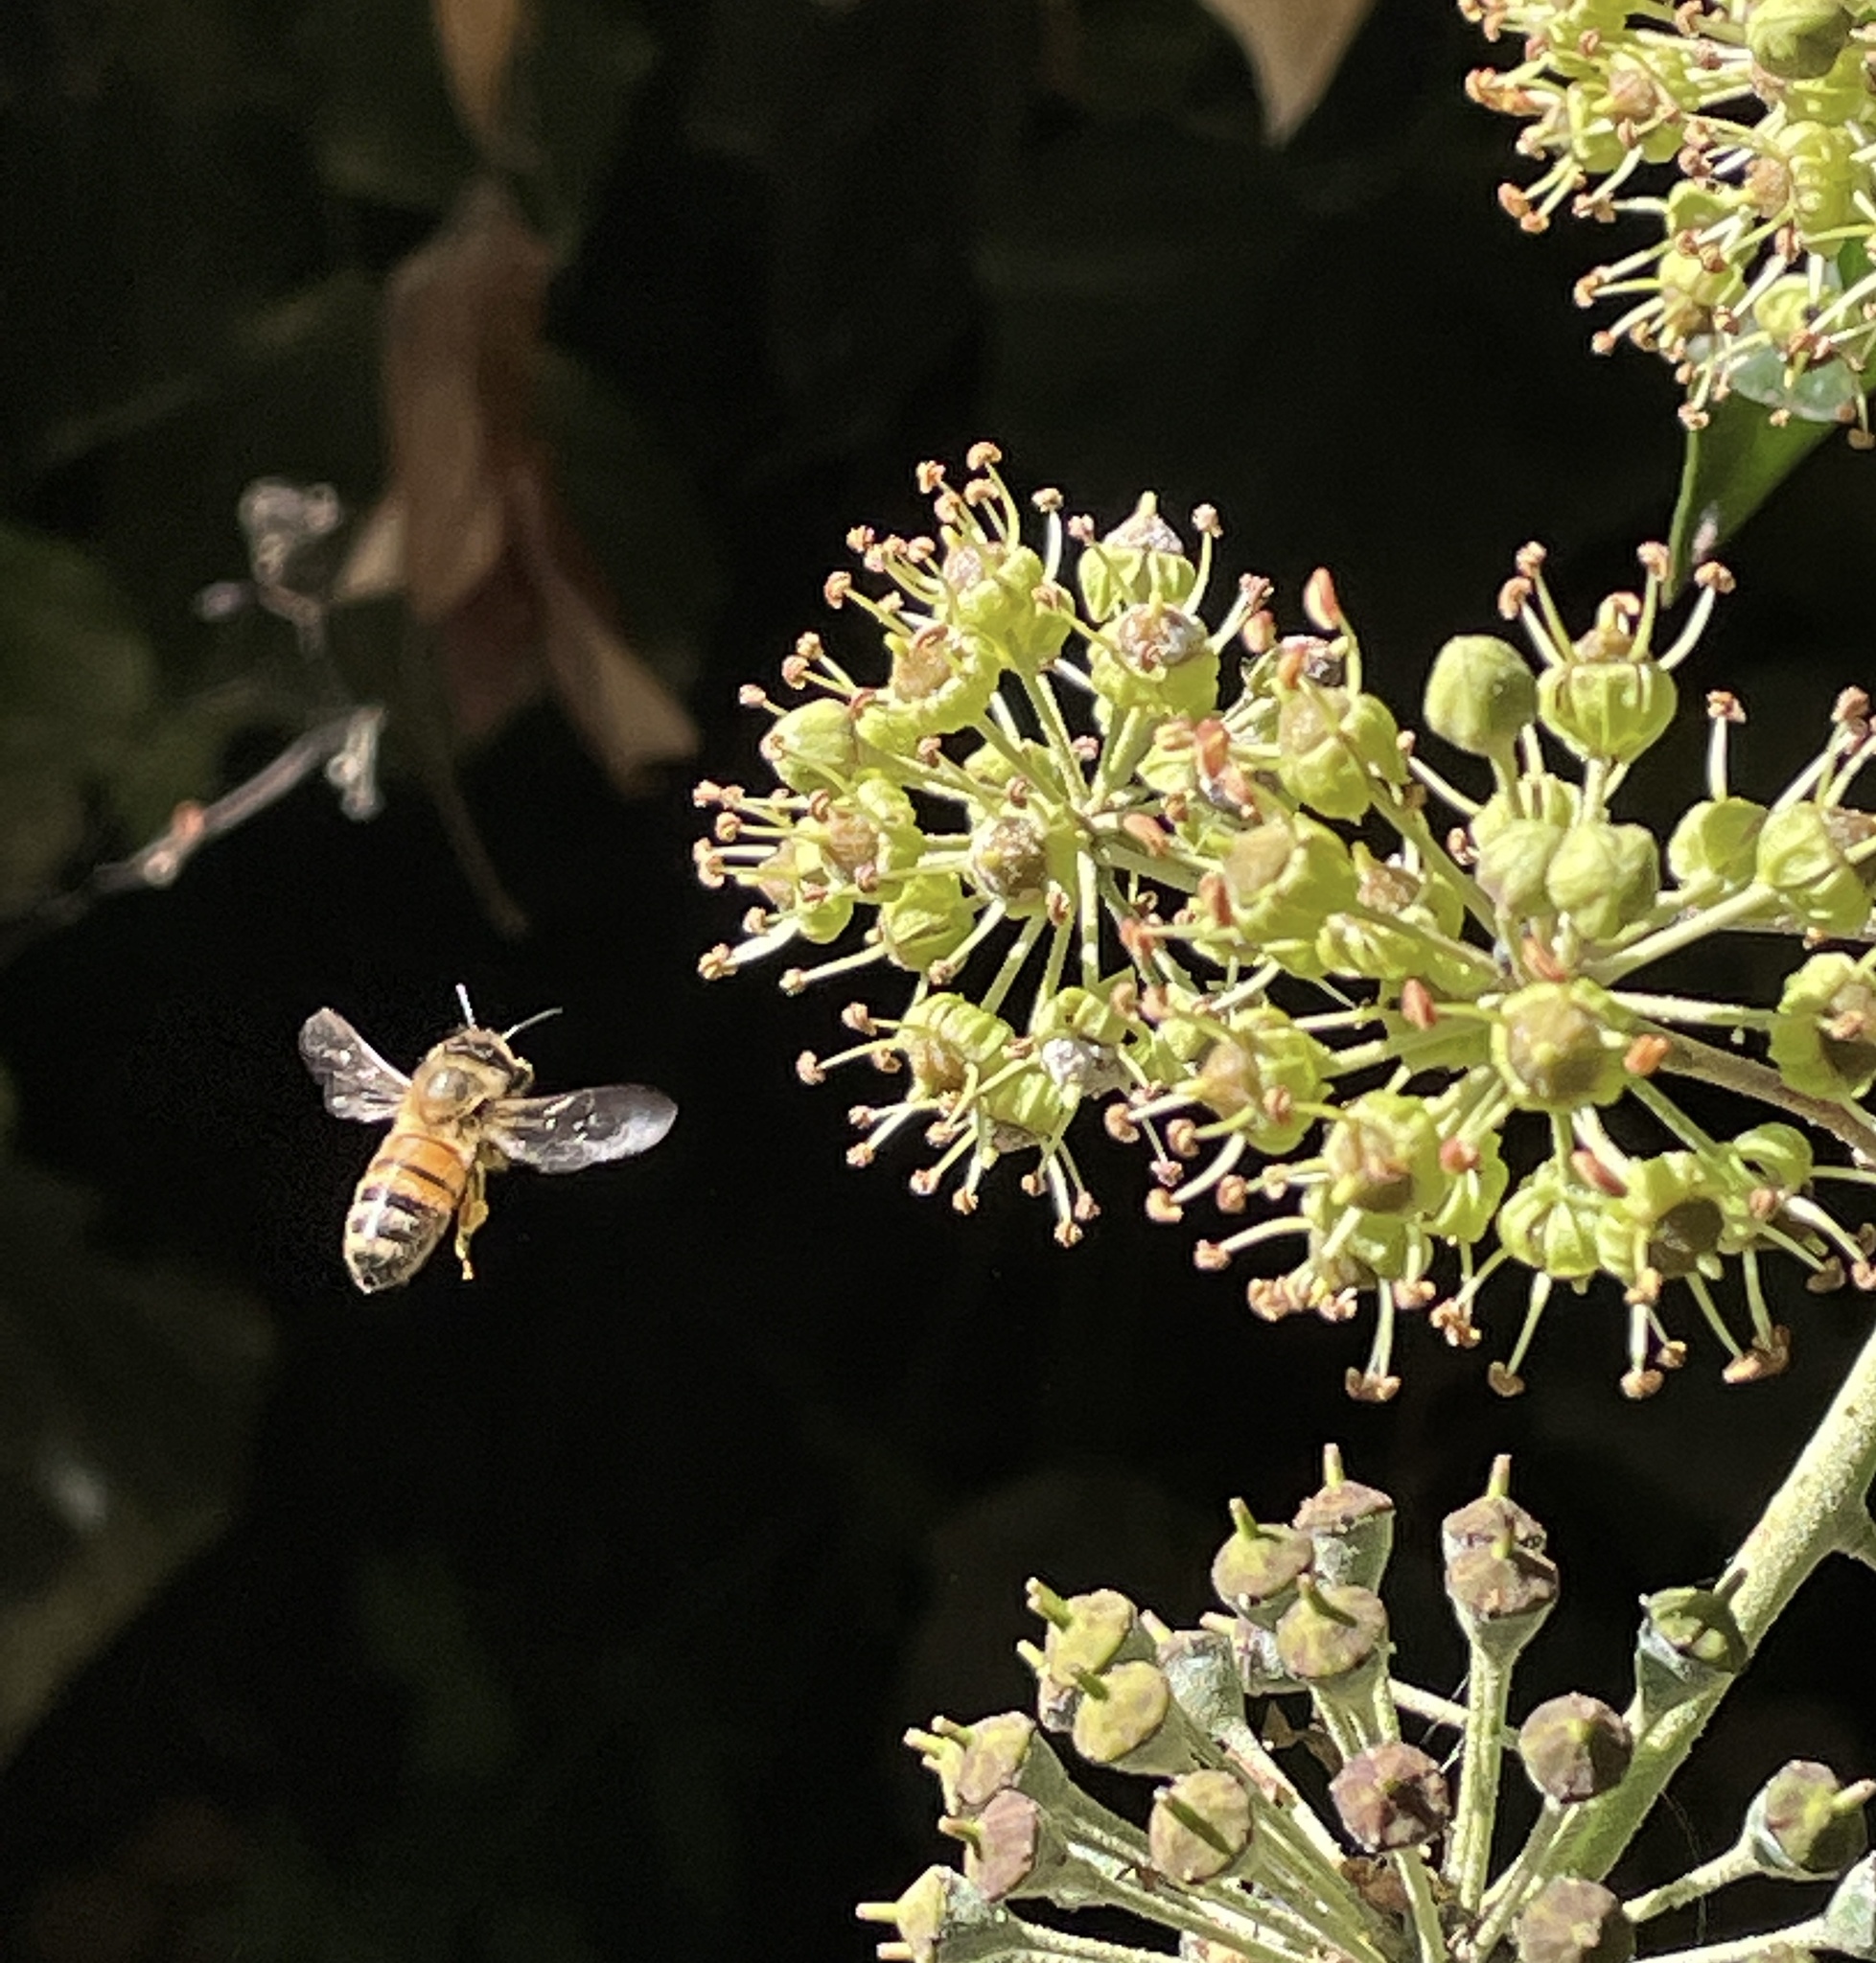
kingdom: Animalia
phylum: Arthropoda
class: Insecta
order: Hymenoptera
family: Apidae
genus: Apis
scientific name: Apis mellifera
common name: Honey bee
